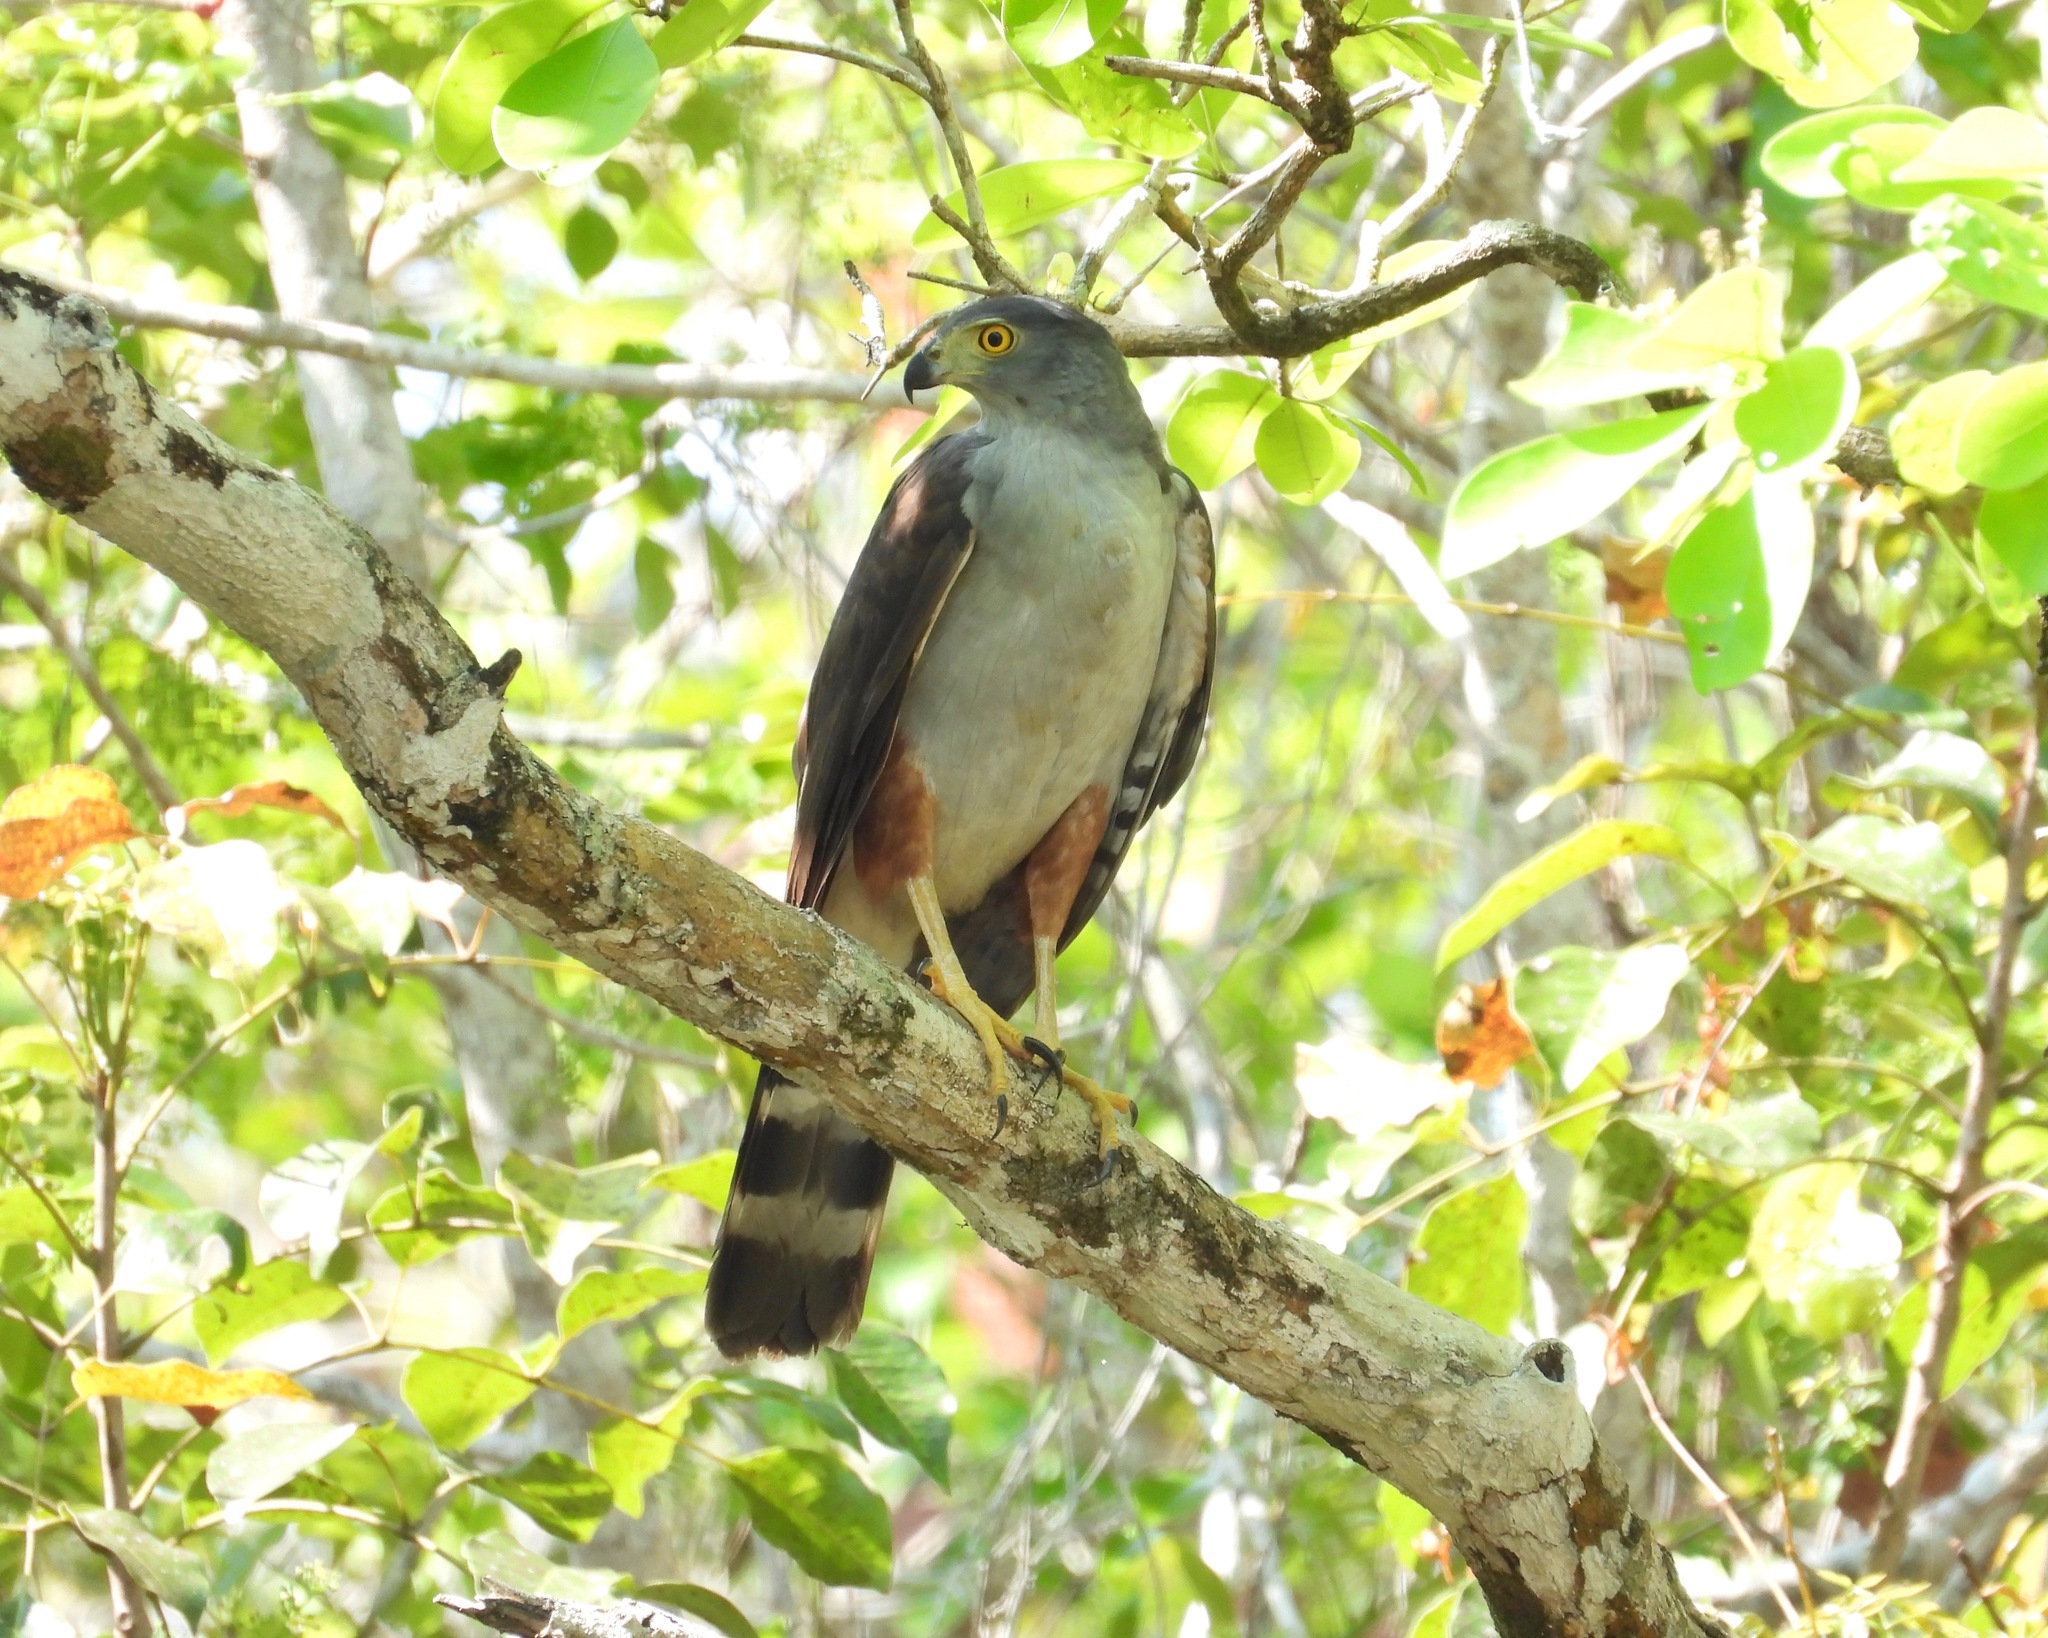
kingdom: Animalia
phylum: Chordata
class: Aves
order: Accipitriformes
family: Accipitridae
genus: Accipiter
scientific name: Accipiter bicolor
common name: Bicolored hawk
